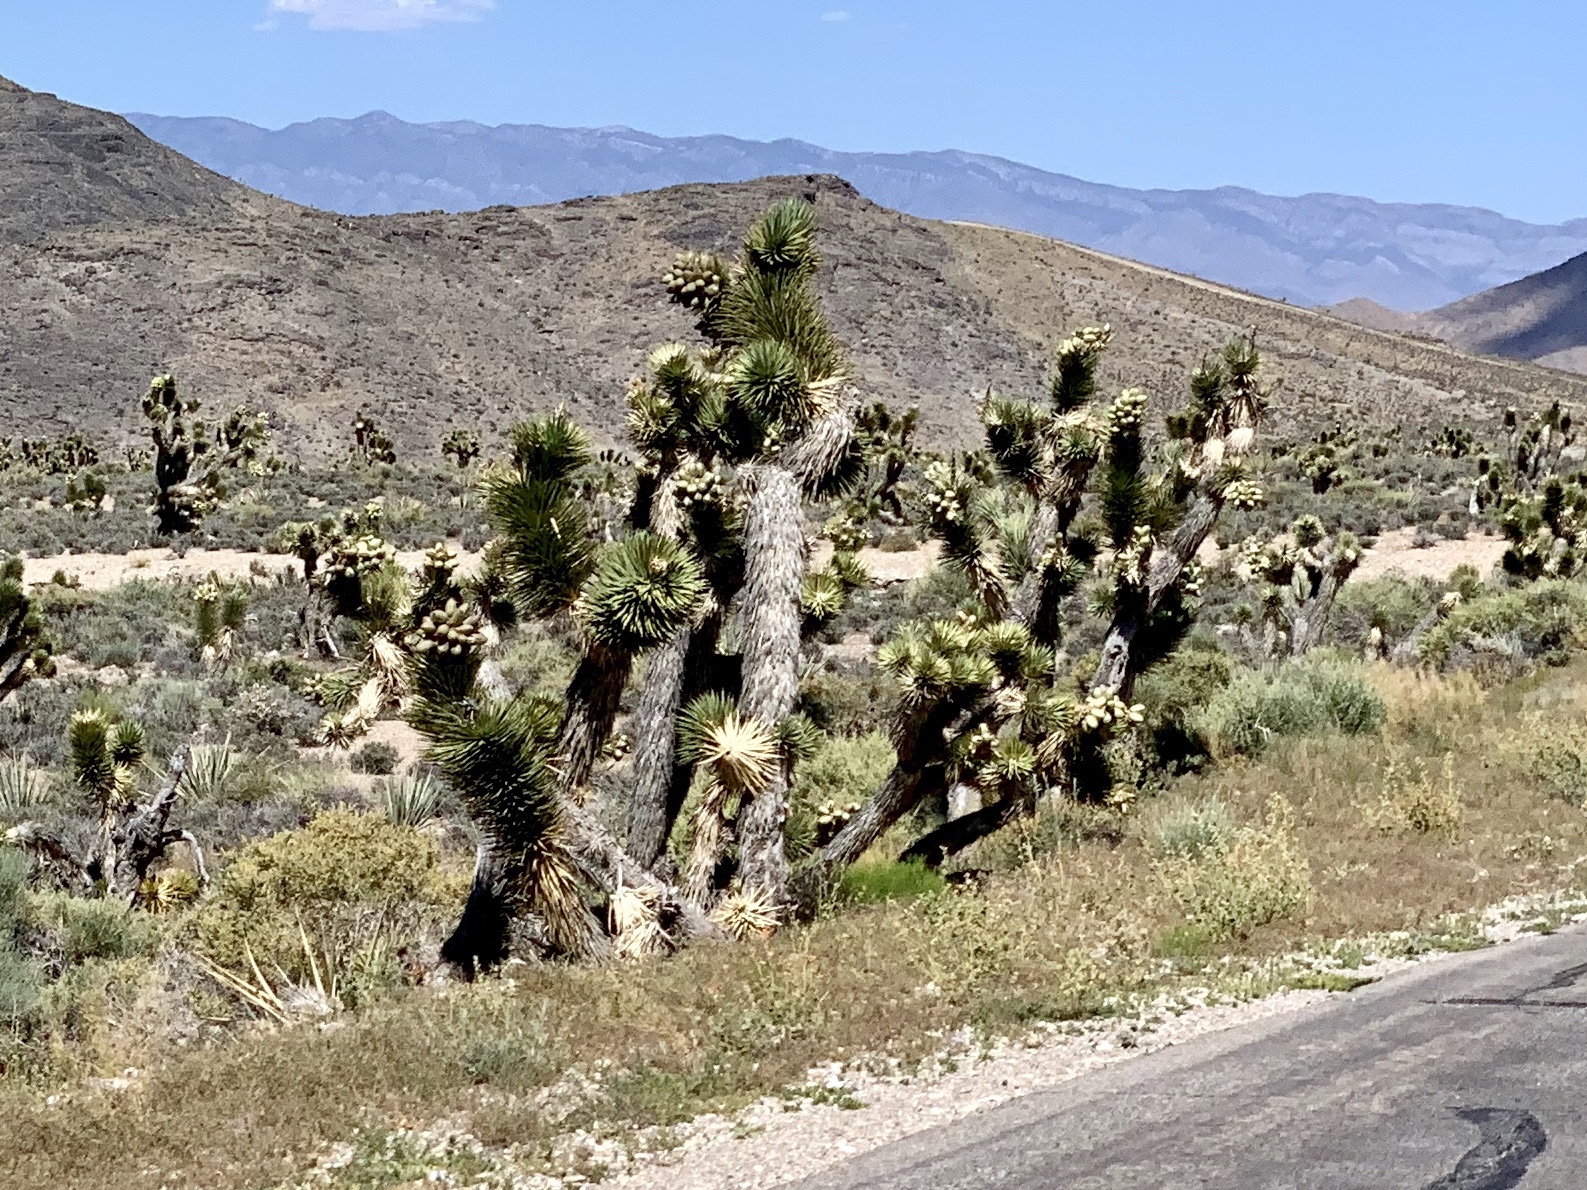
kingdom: Plantae
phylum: Tracheophyta
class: Liliopsida
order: Asparagales
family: Asparagaceae
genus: Yucca
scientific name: Yucca brevifolia
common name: Joshua tree
